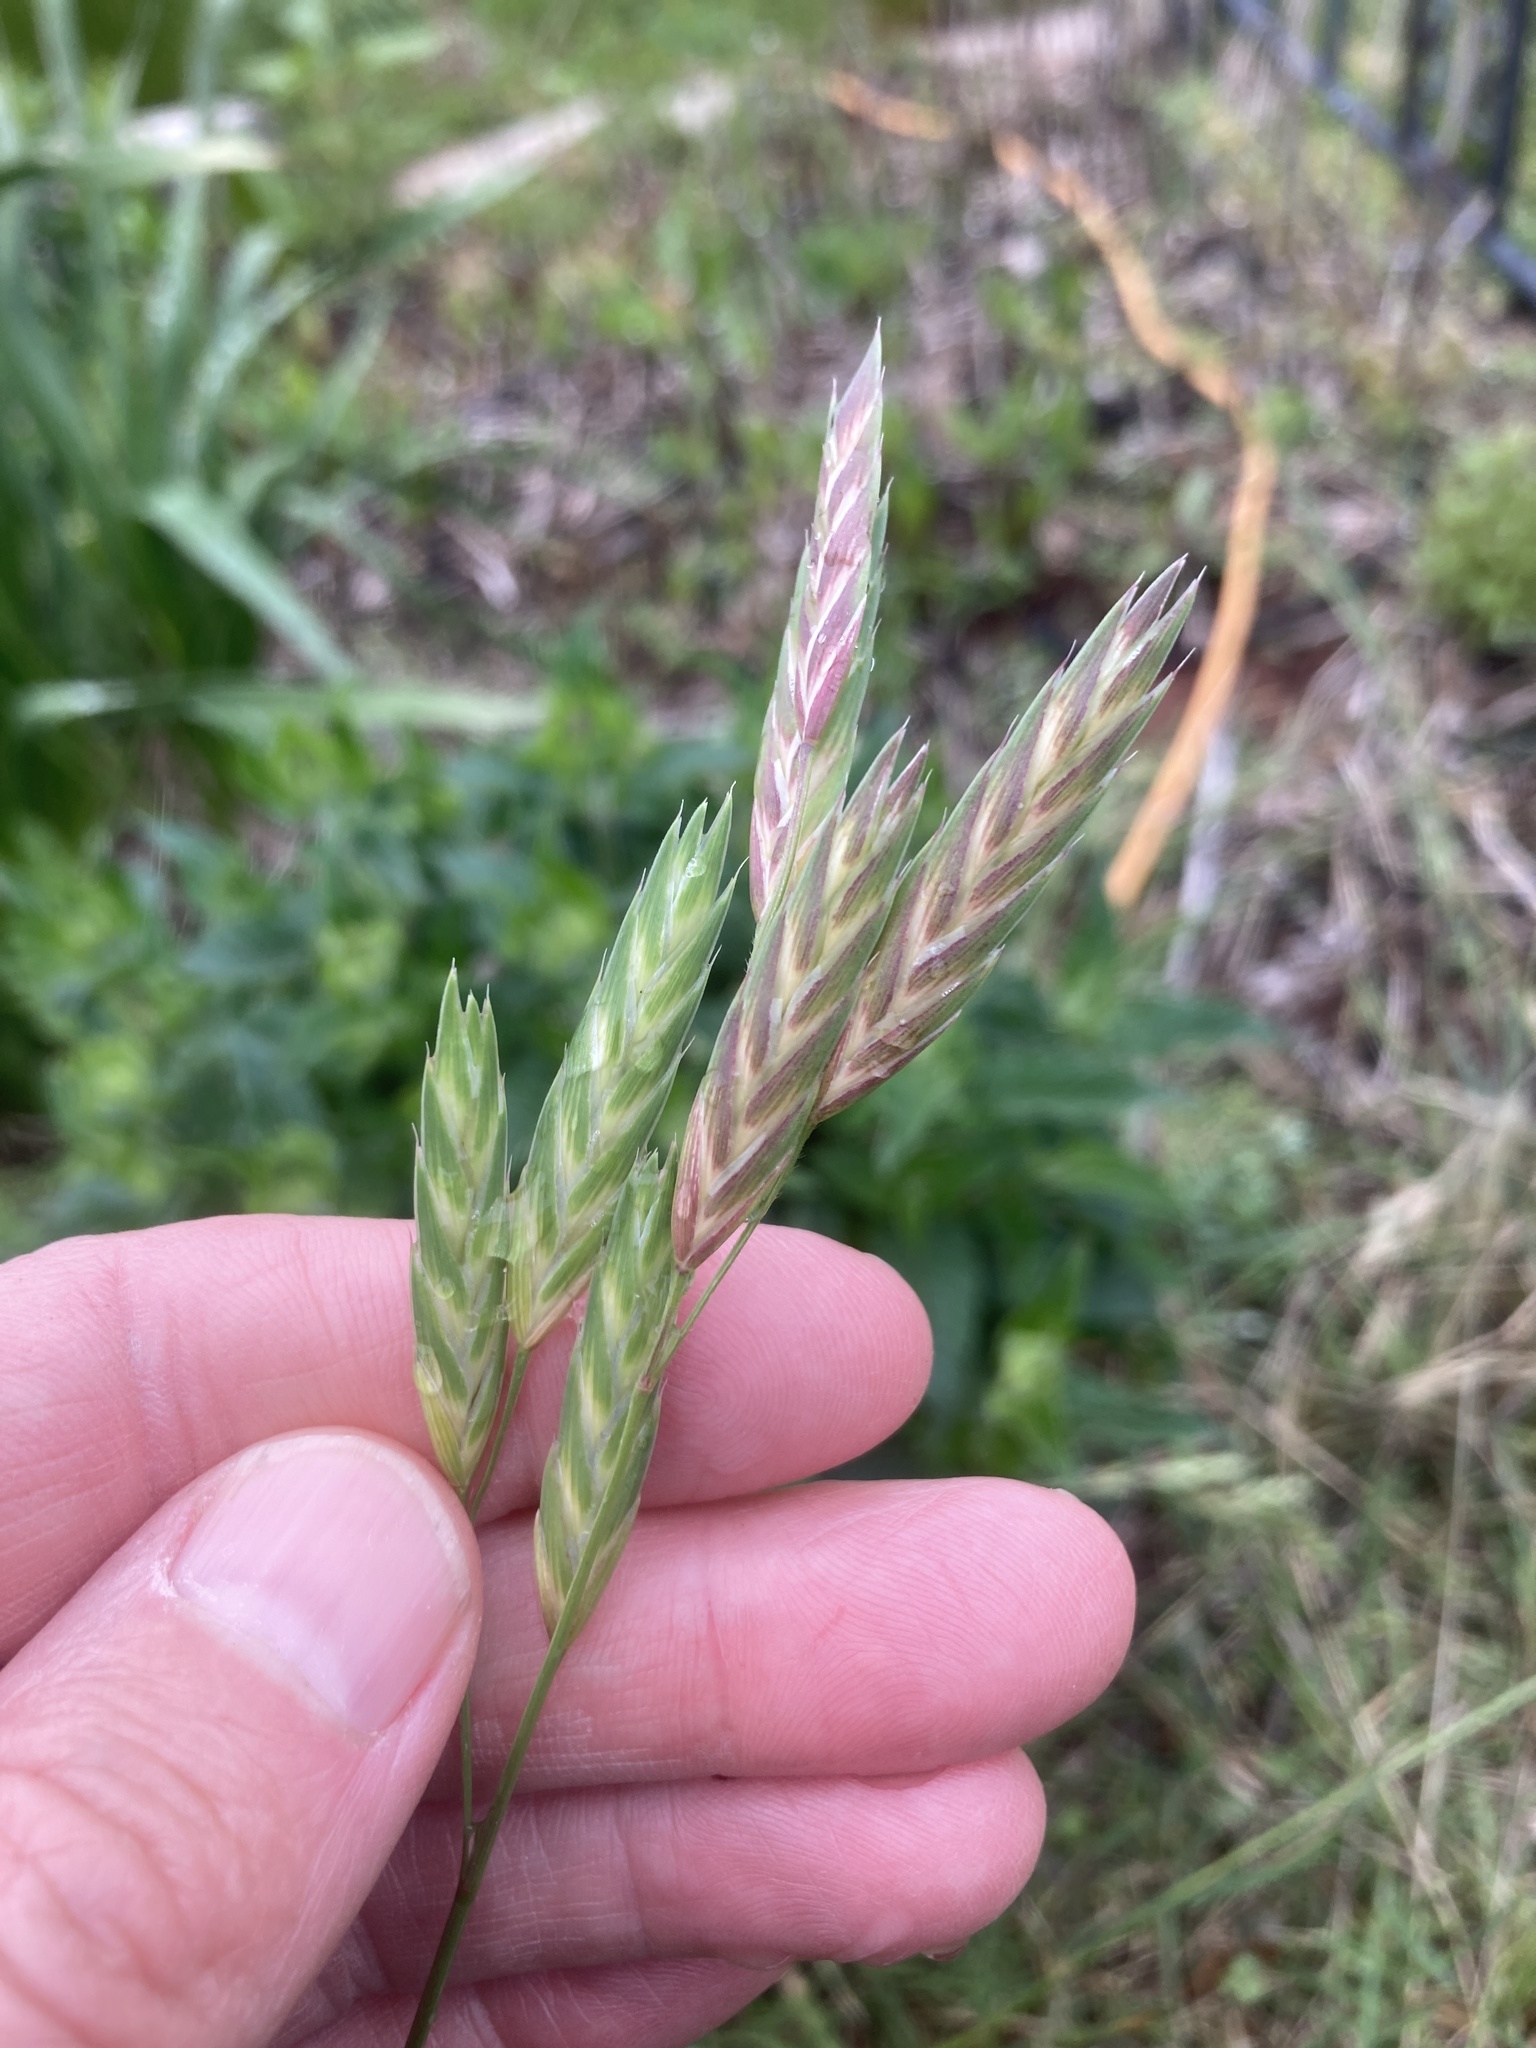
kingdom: Plantae
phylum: Tracheophyta
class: Liliopsida
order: Poales
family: Poaceae
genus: Bromus
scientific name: Bromus catharticus
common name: Rescuegrass
